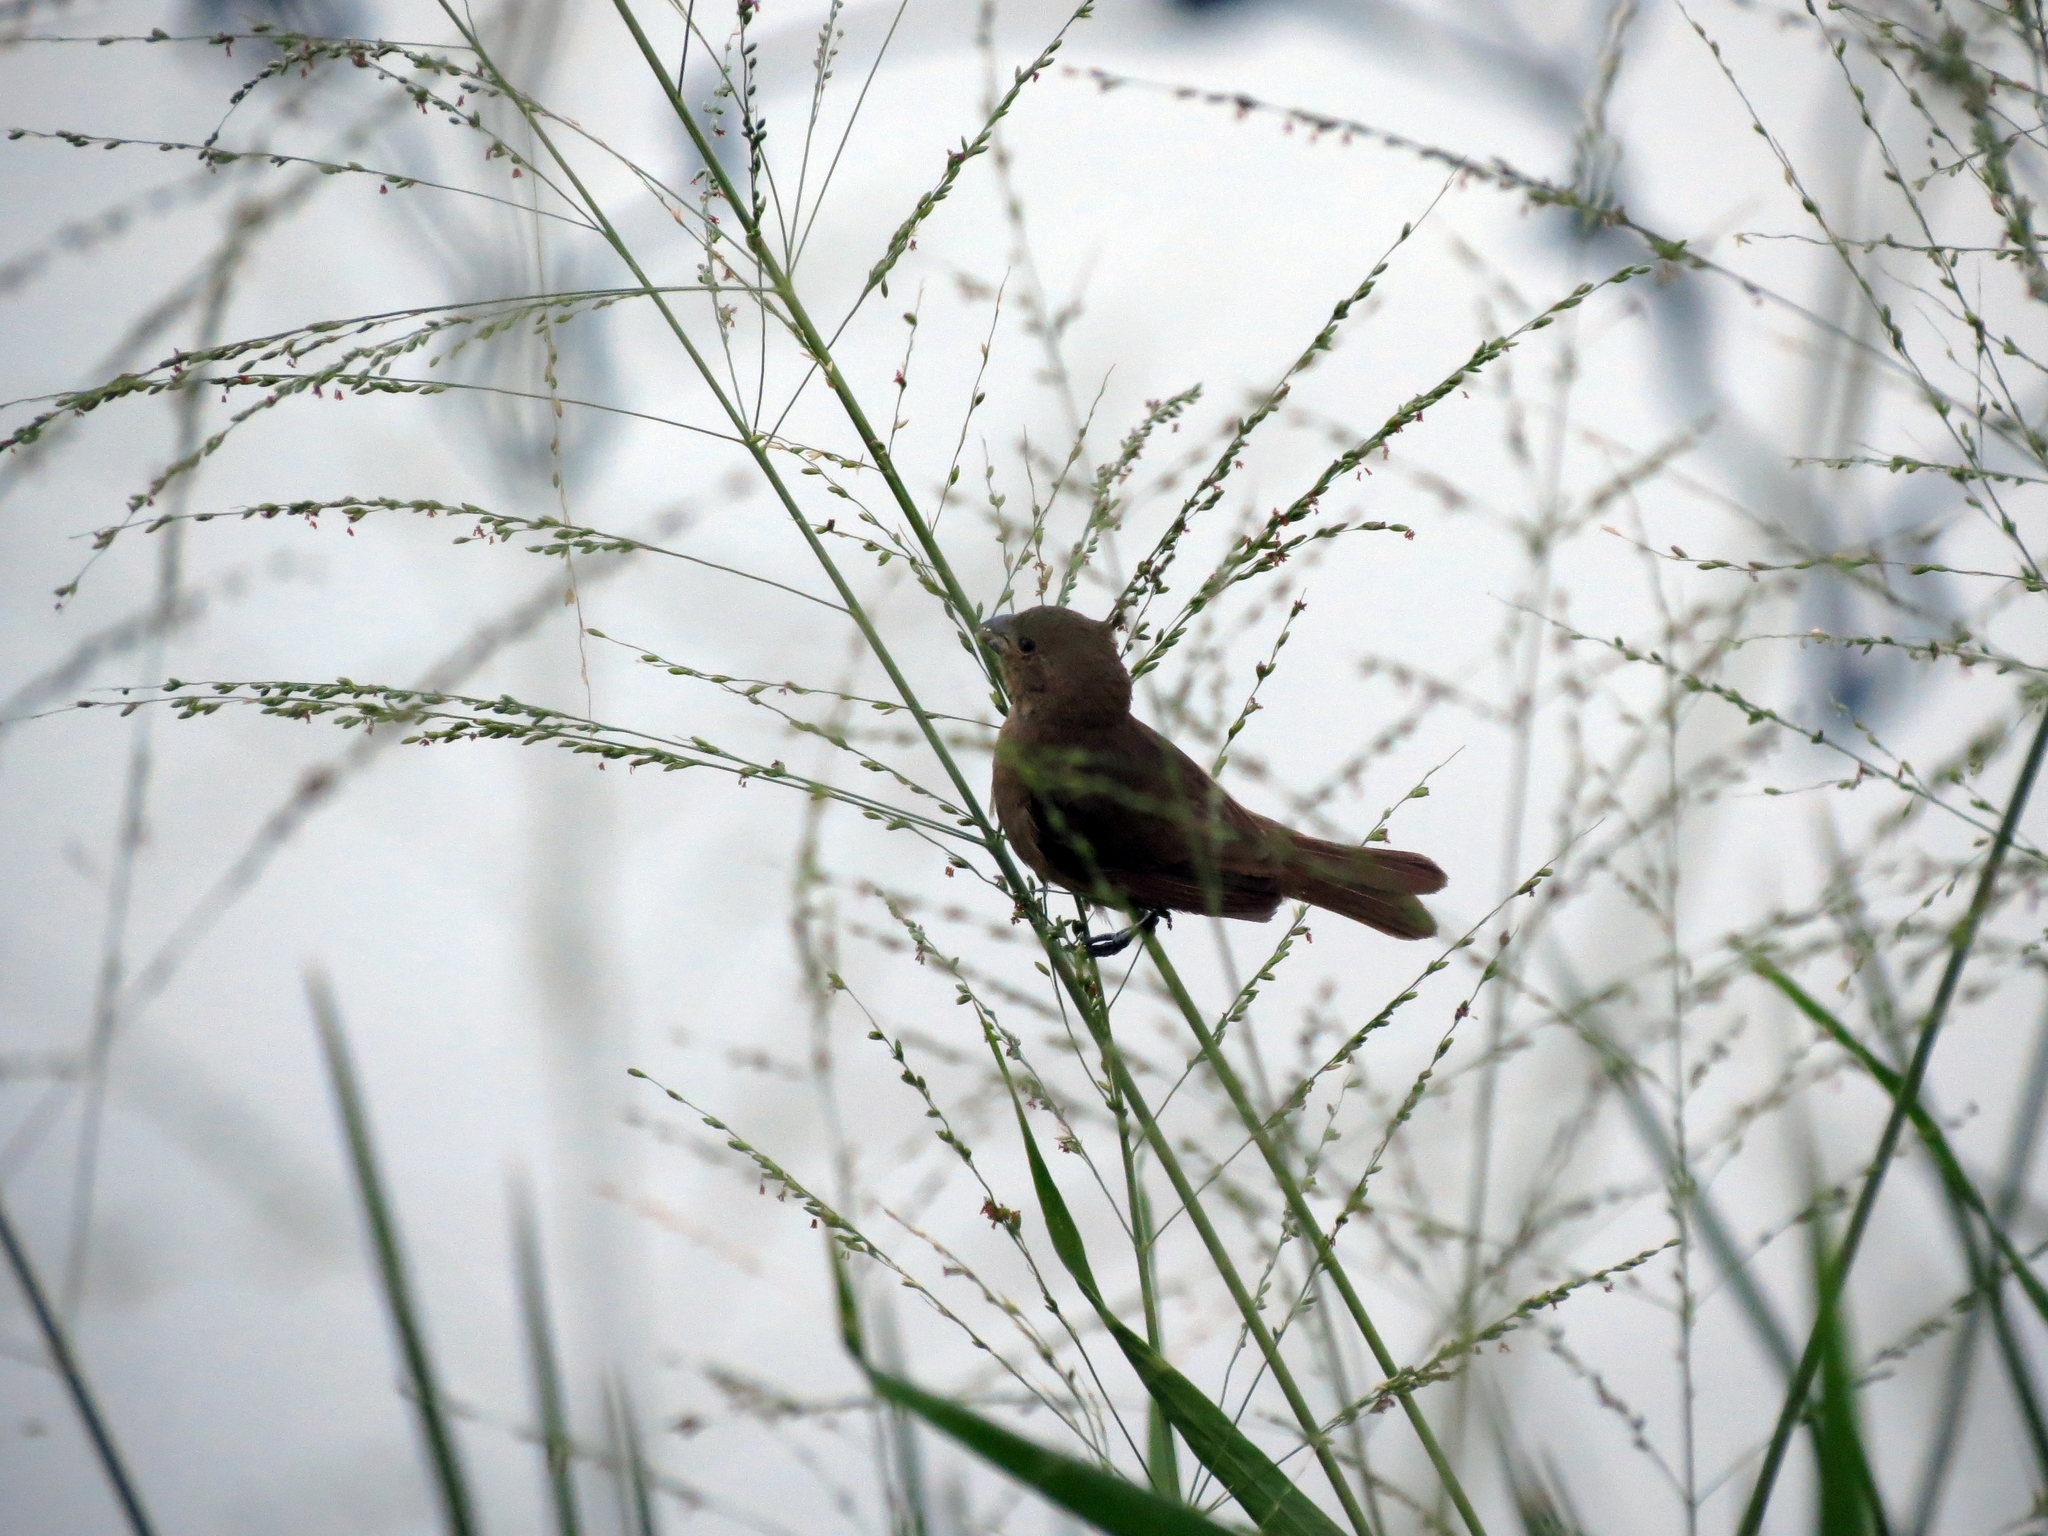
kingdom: Animalia
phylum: Chordata
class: Aves
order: Passeriformes
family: Thraupidae
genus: Sporophila
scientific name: Sporophila nigricollis
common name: Yellow-bellied seedeater
